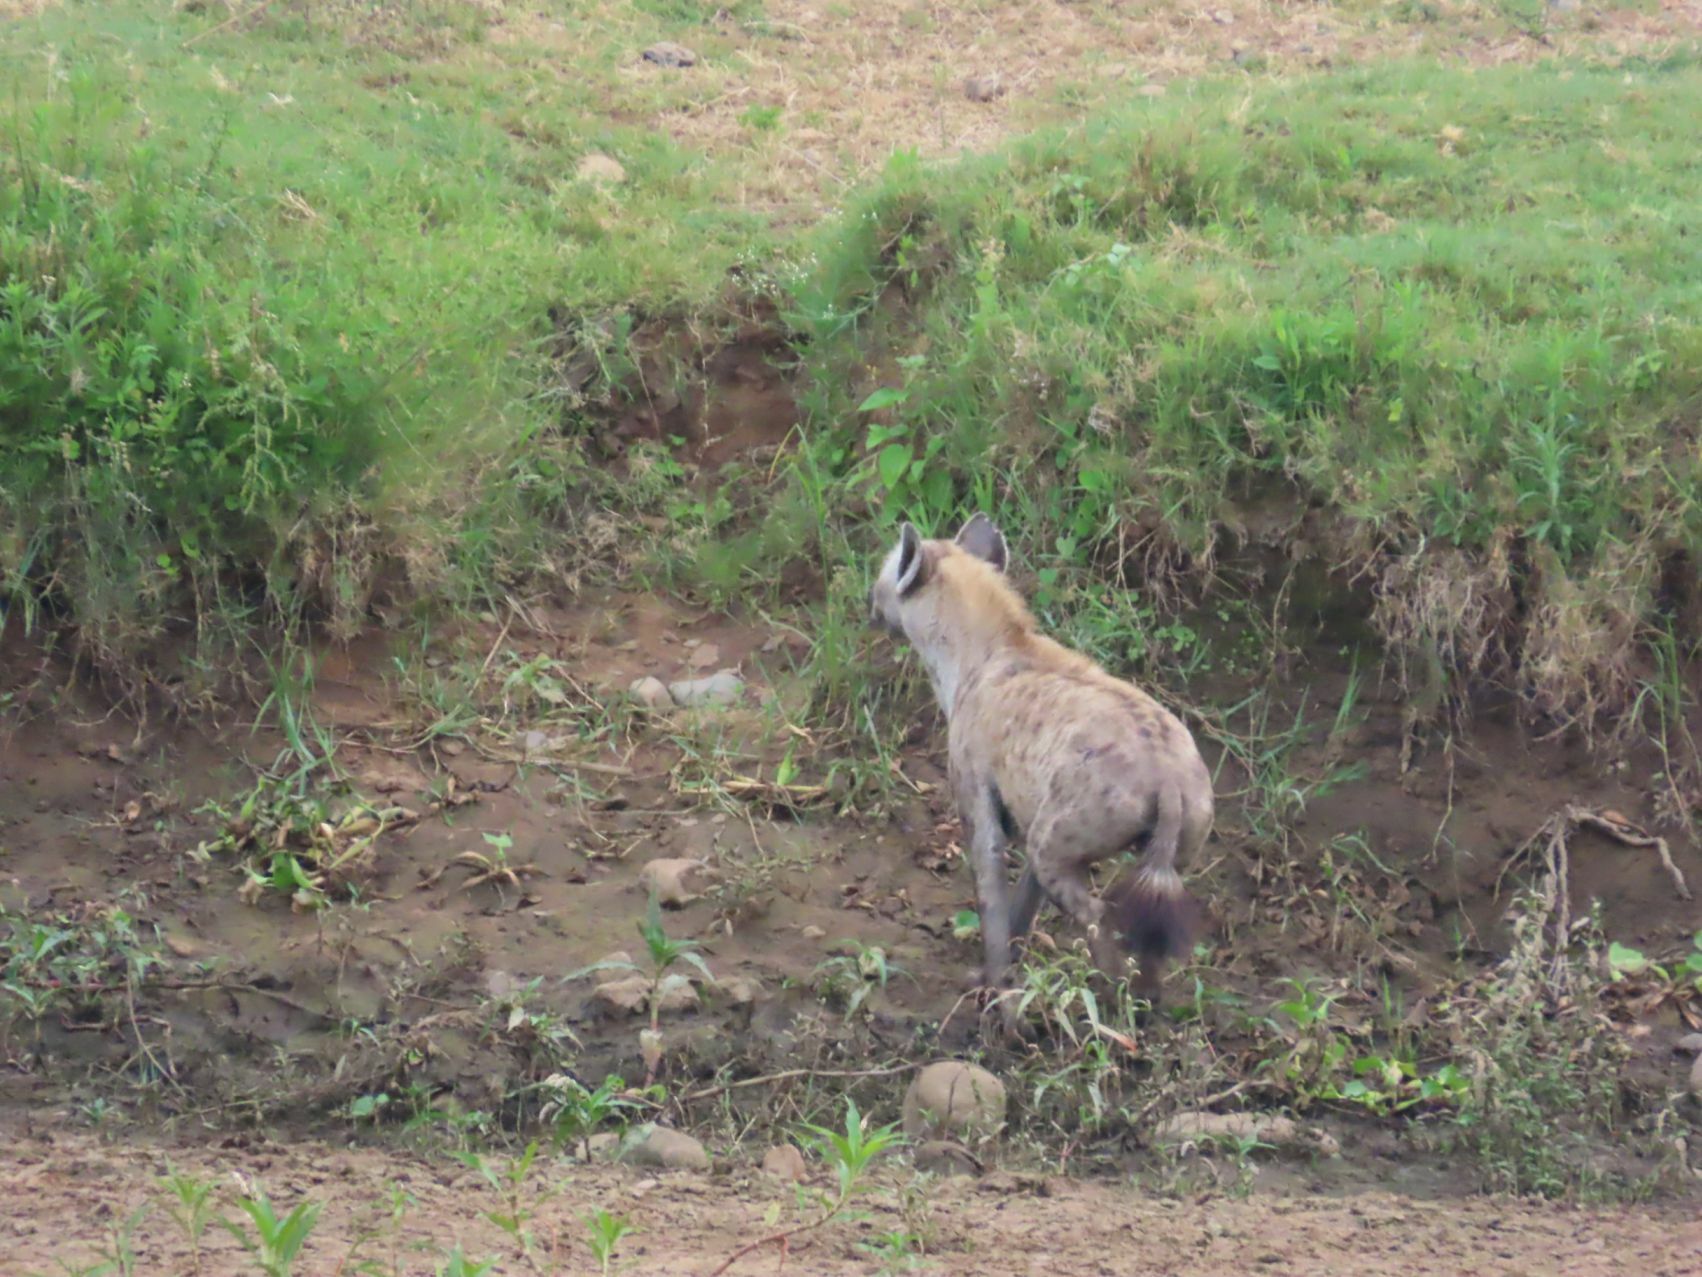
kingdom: Animalia
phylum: Chordata
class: Mammalia
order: Carnivora
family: Hyaenidae
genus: Crocuta
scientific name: Crocuta crocuta
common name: Spotted hyaena
